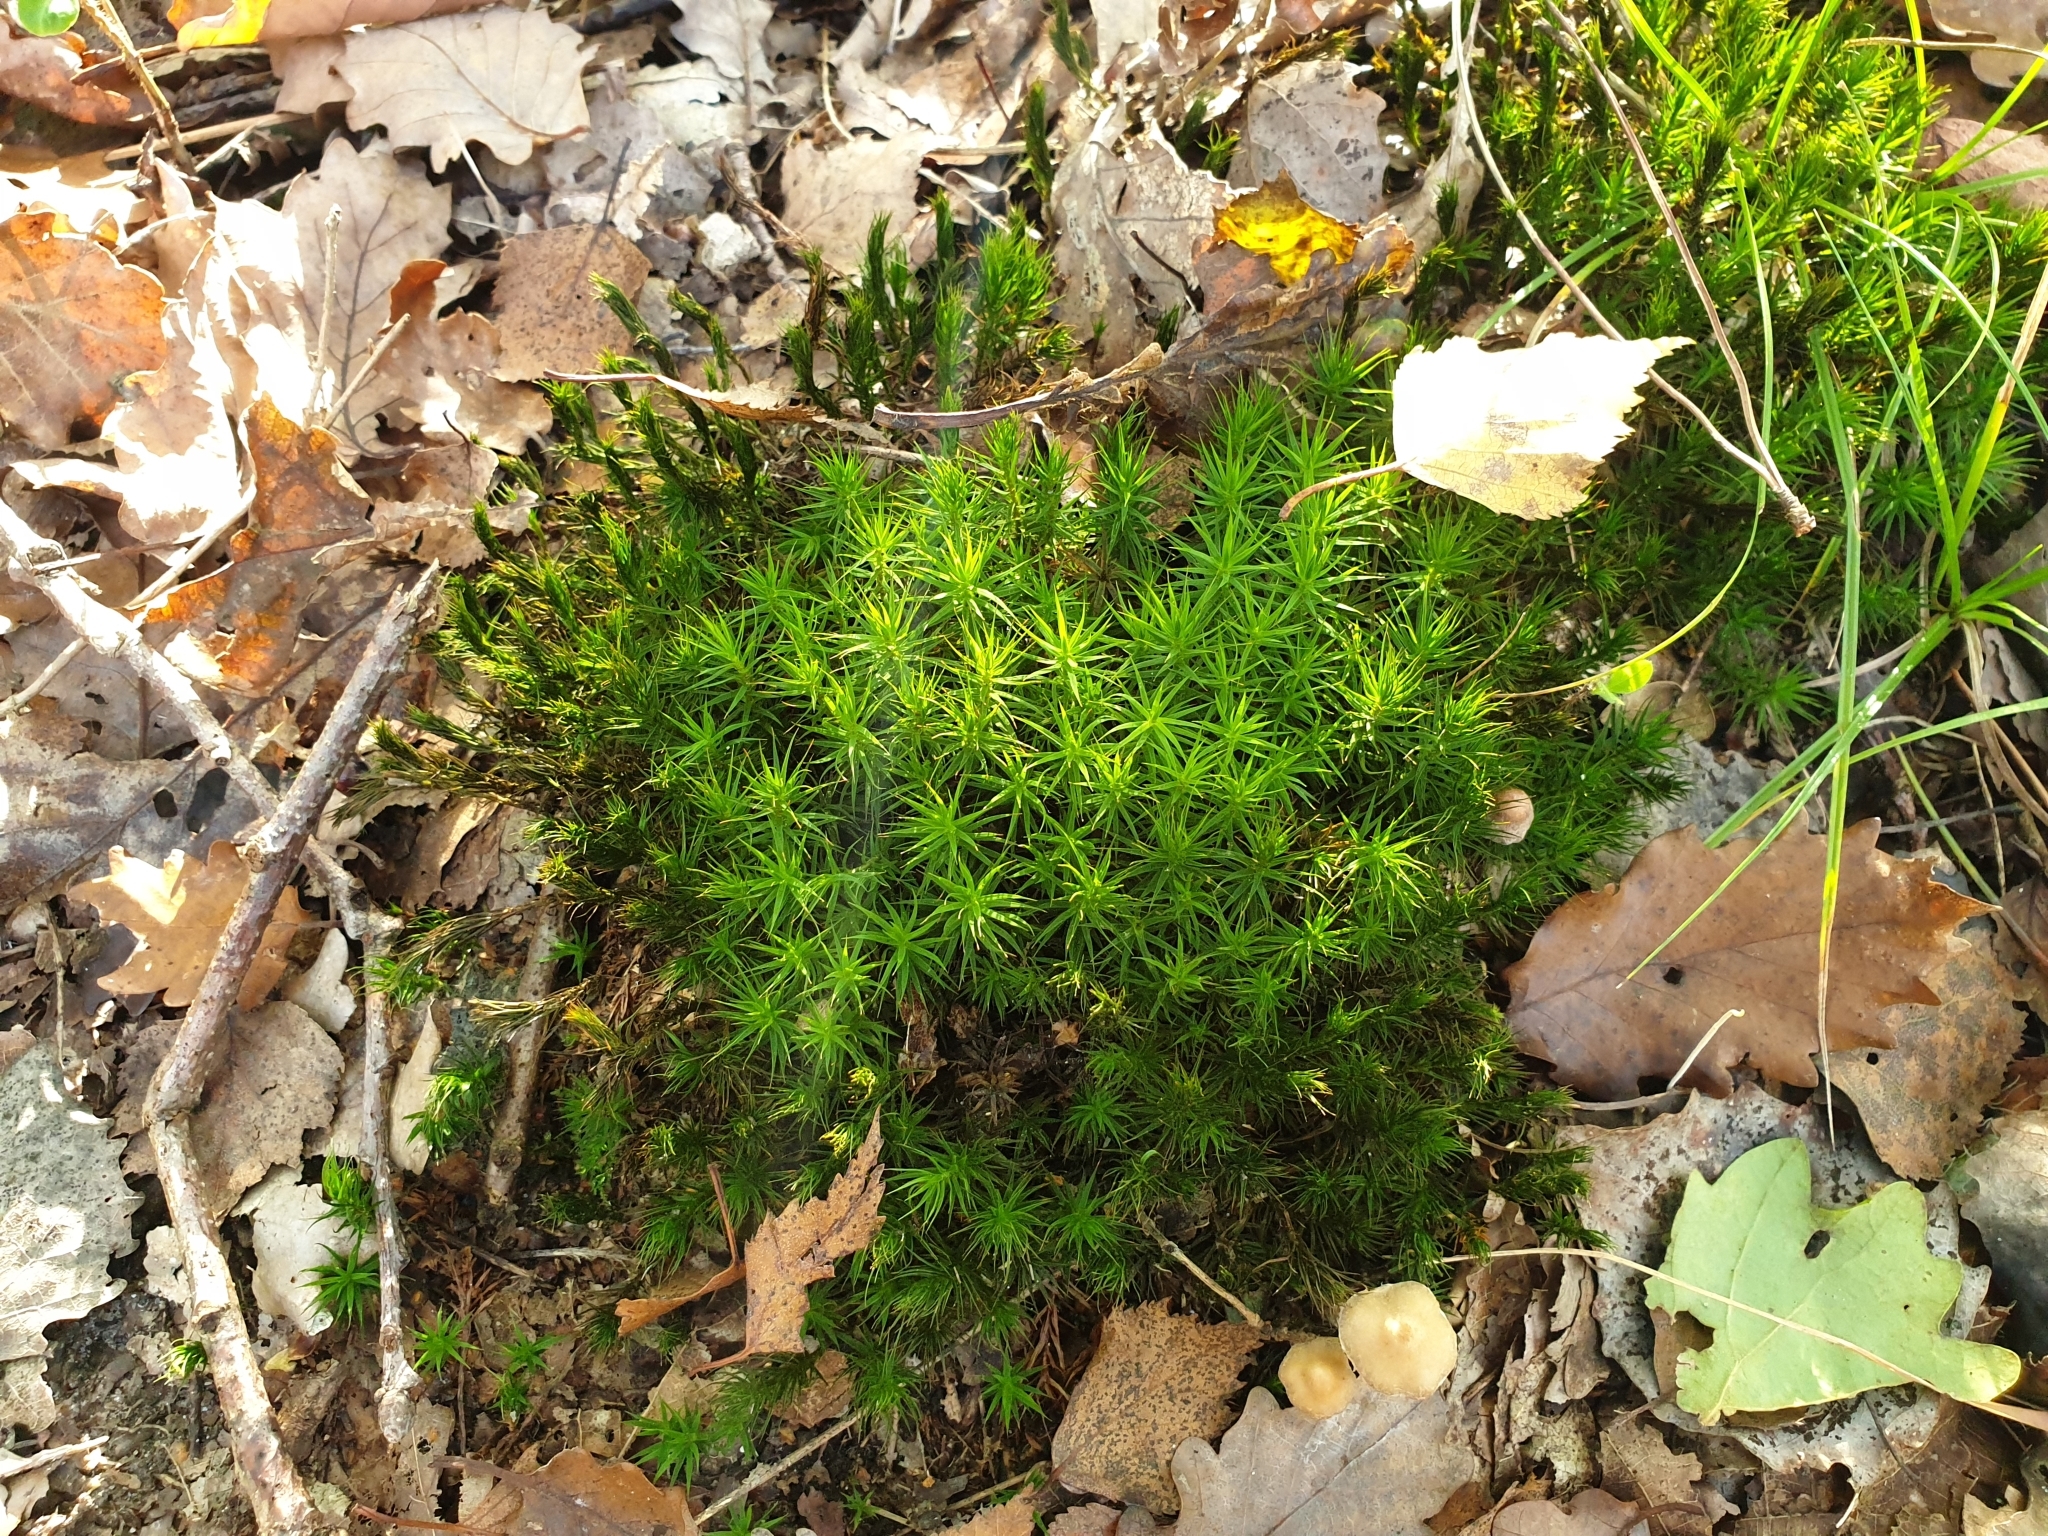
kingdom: Plantae
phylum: Bryophyta
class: Polytrichopsida
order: Polytrichales
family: Polytrichaceae
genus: Polytrichum
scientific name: Polytrichum formosum
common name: Bank haircap moss
